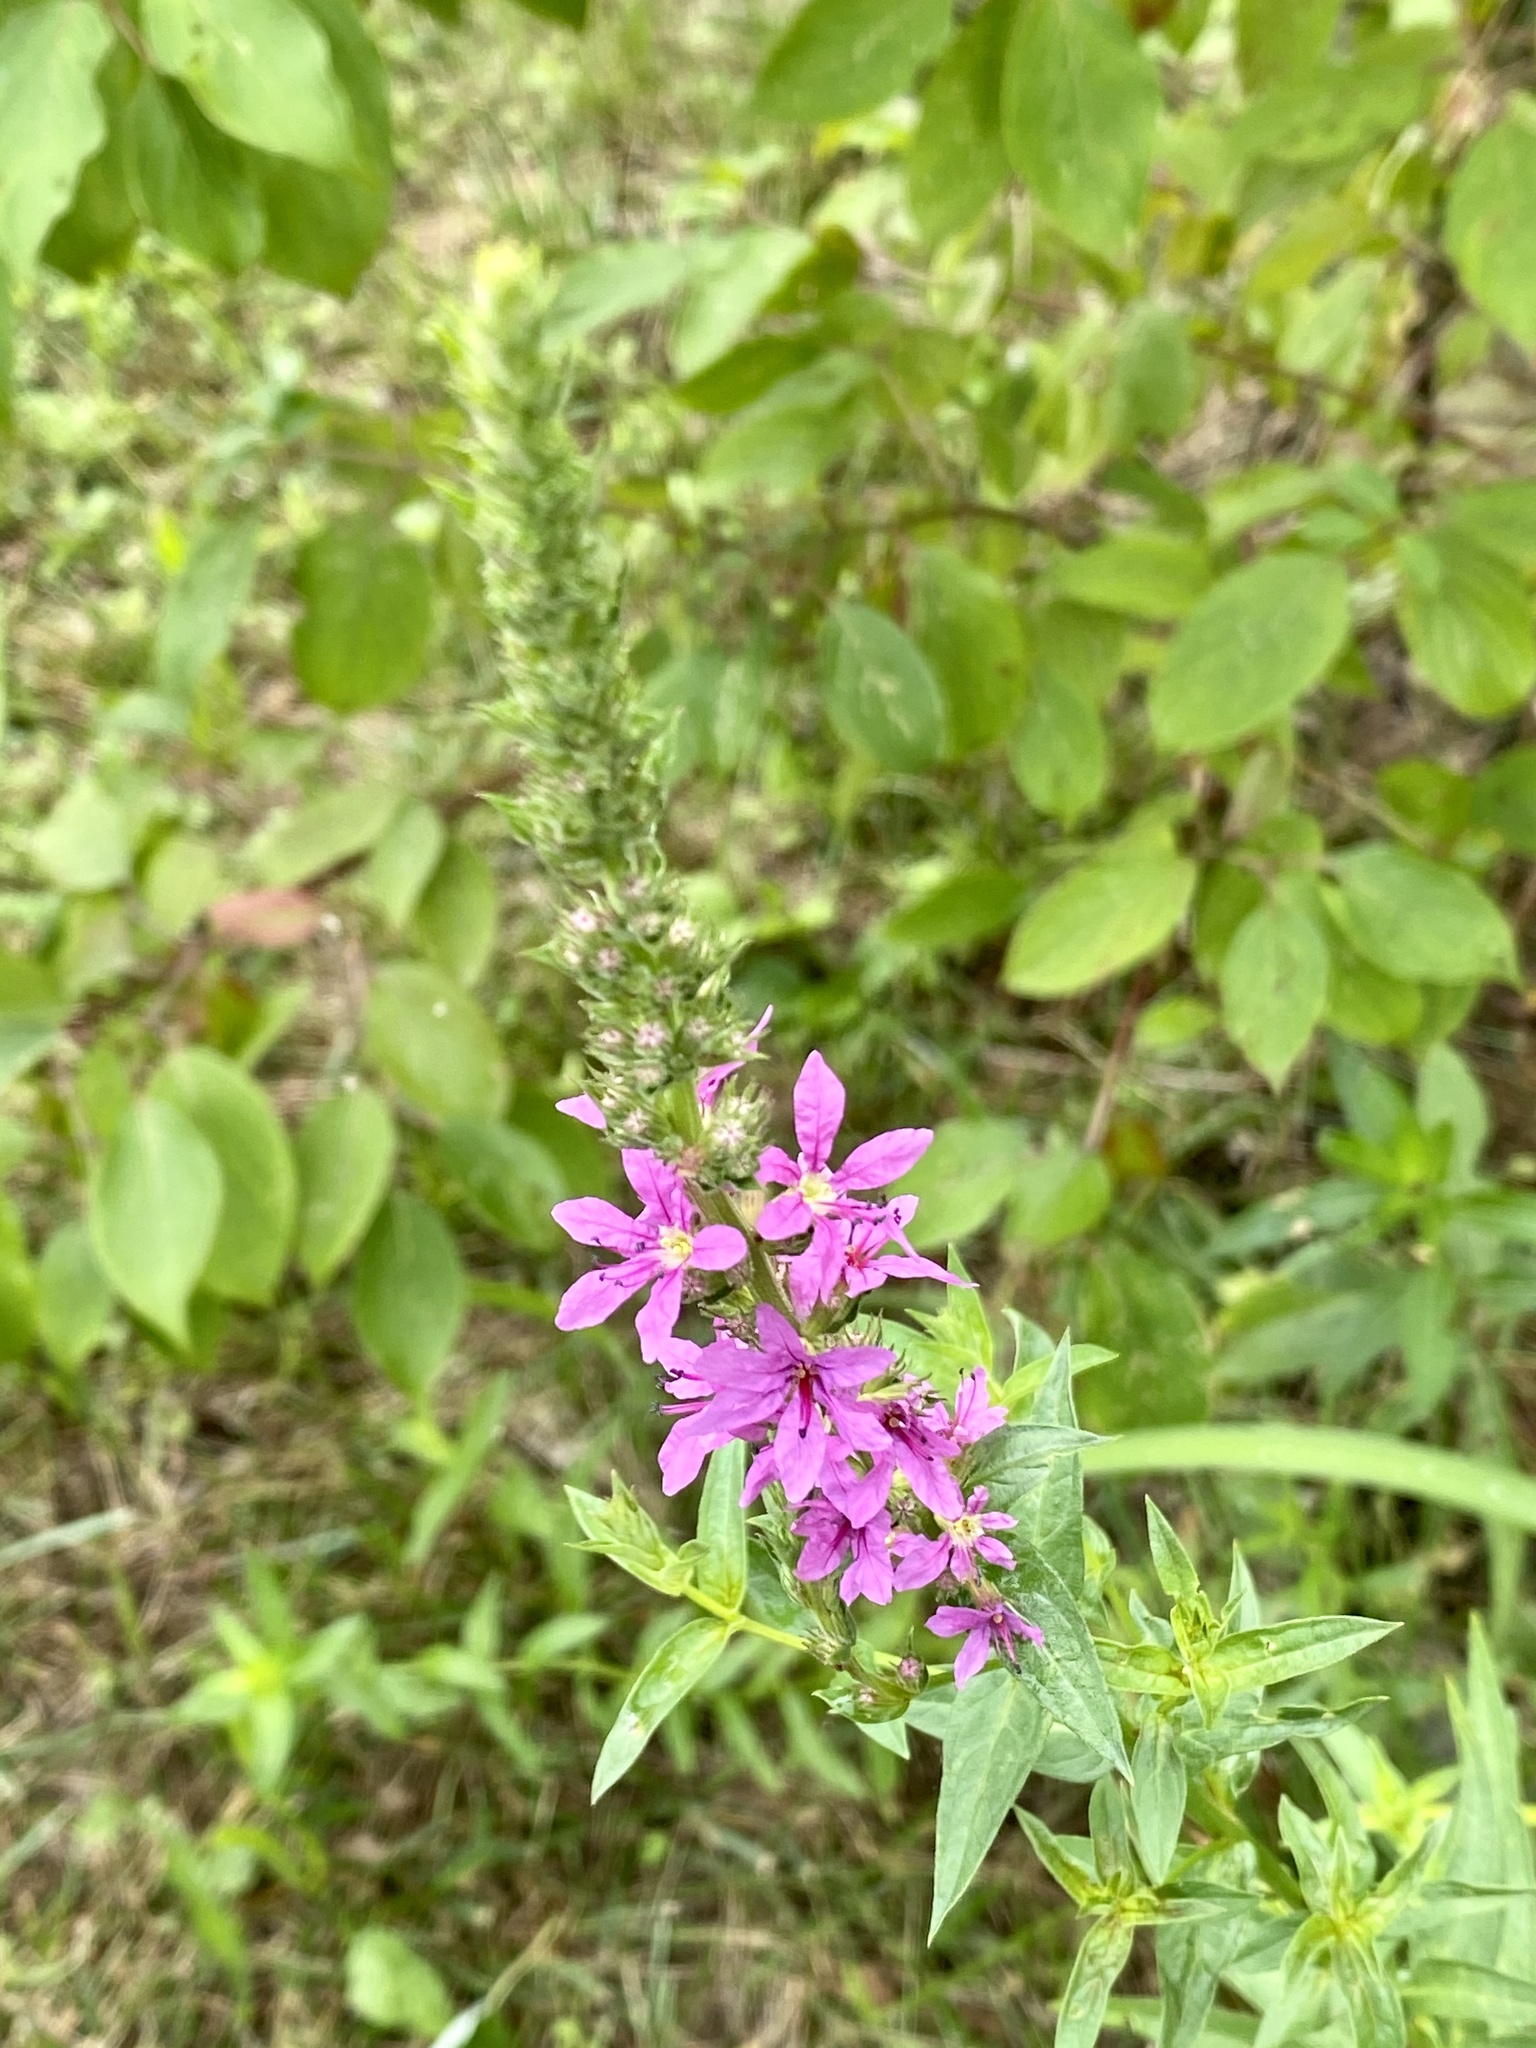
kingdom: Plantae
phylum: Tracheophyta
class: Magnoliopsida
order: Myrtales
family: Lythraceae
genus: Lythrum
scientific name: Lythrum salicaria
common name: Purple loosestrife
